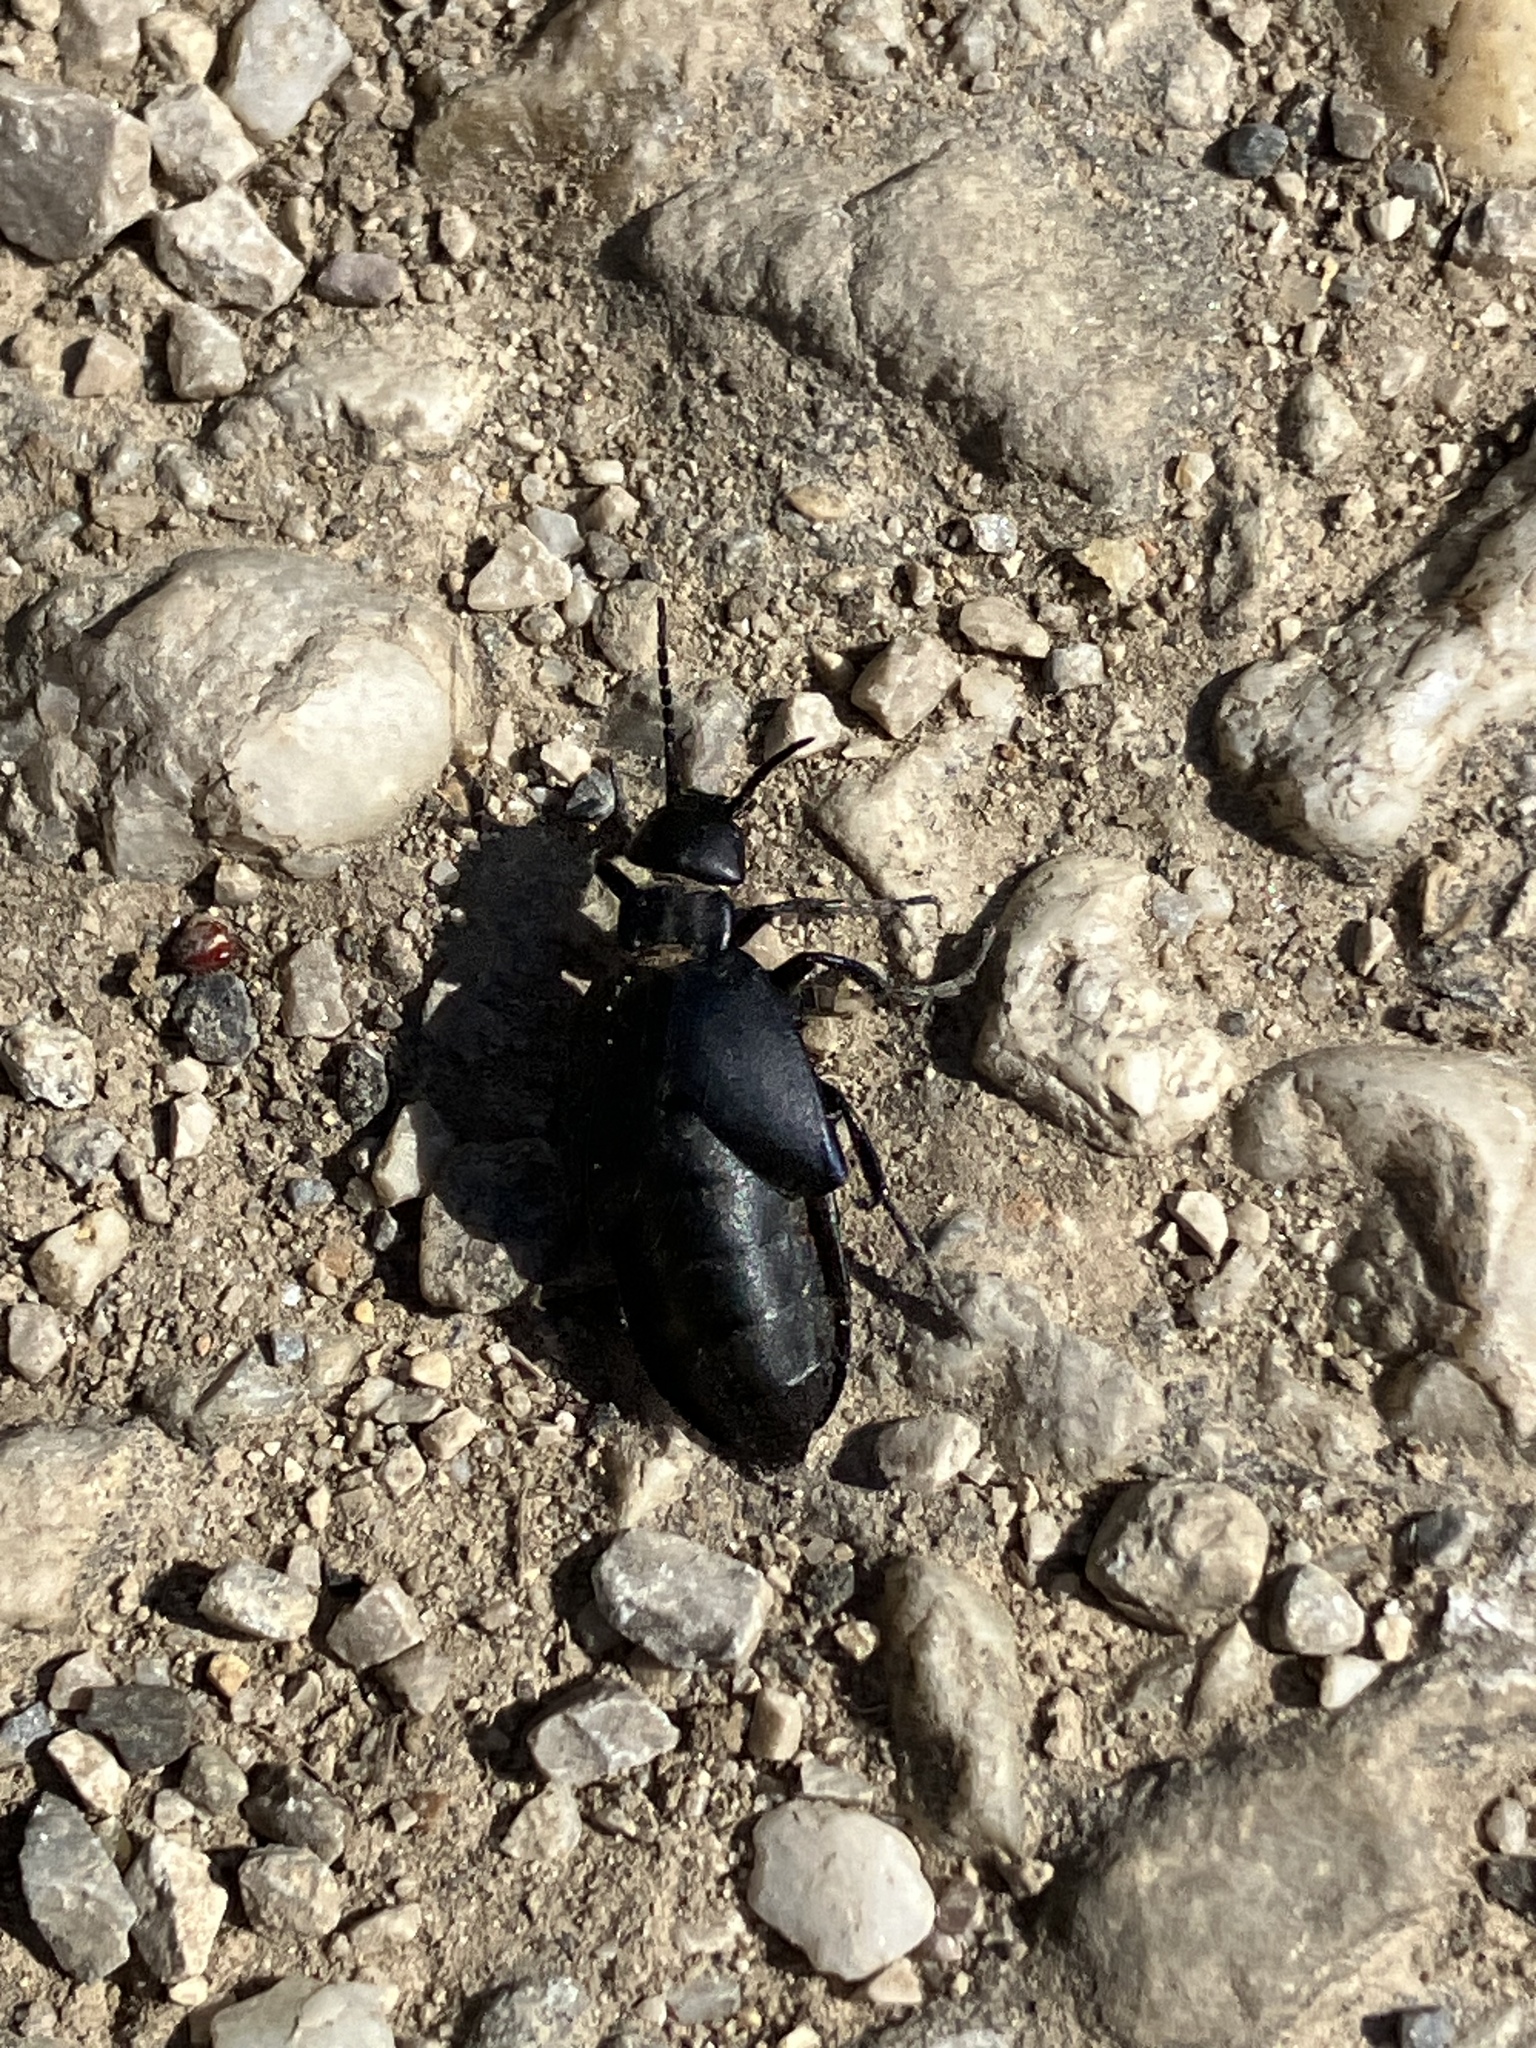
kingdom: Animalia
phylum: Arthropoda
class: Insecta
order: Coleoptera
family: Meloidae
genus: Meloe
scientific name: Meloe uralensis
